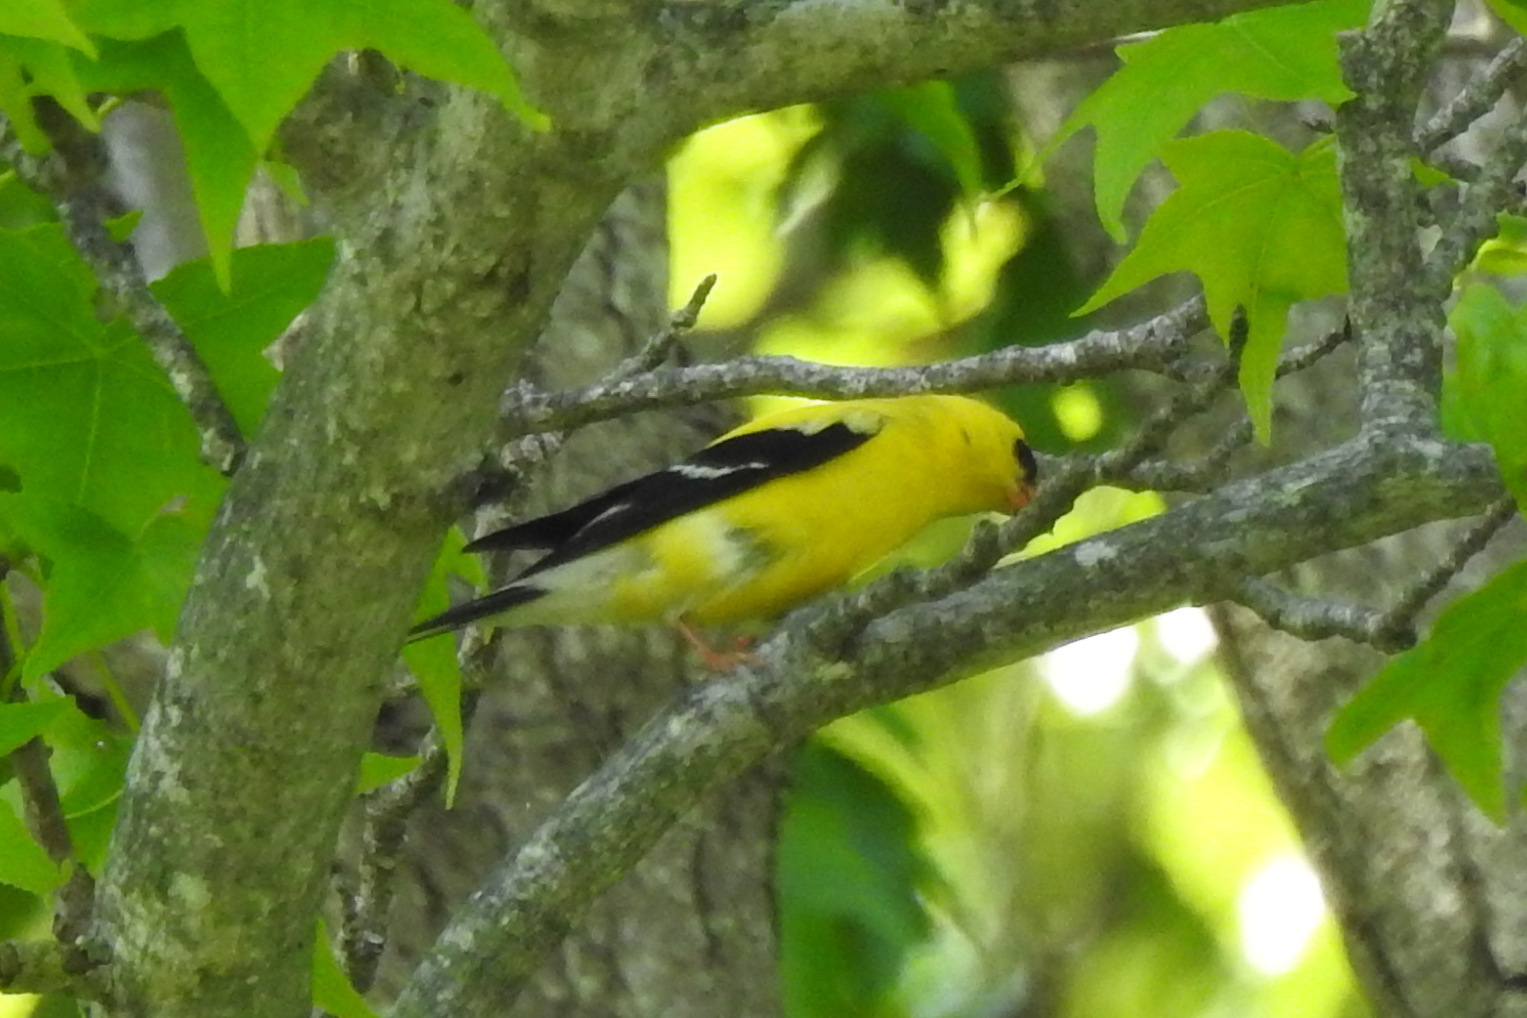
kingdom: Animalia
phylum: Chordata
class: Aves
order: Passeriformes
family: Fringillidae
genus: Spinus
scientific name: Spinus tristis
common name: American goldfinch
